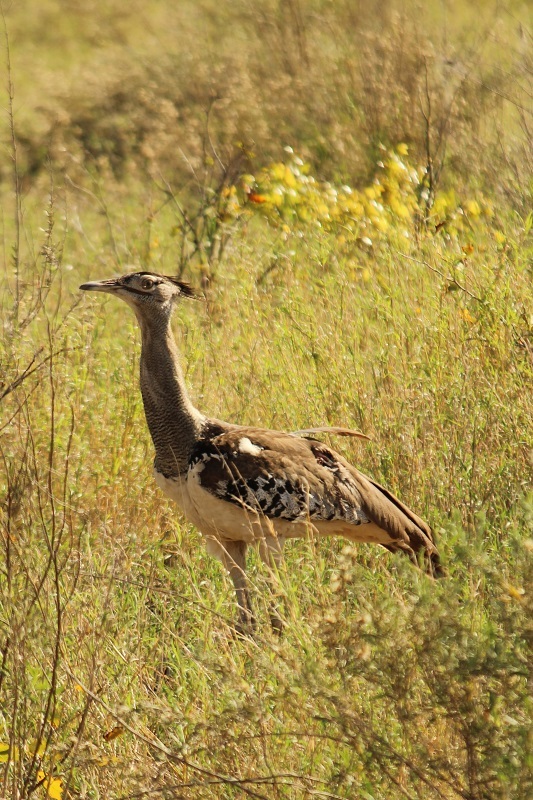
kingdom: Animalia
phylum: Chordata
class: Aves
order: Otidiformes
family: Otididae
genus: Ardeotis
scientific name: Ardeotis kori
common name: Kori bustard
